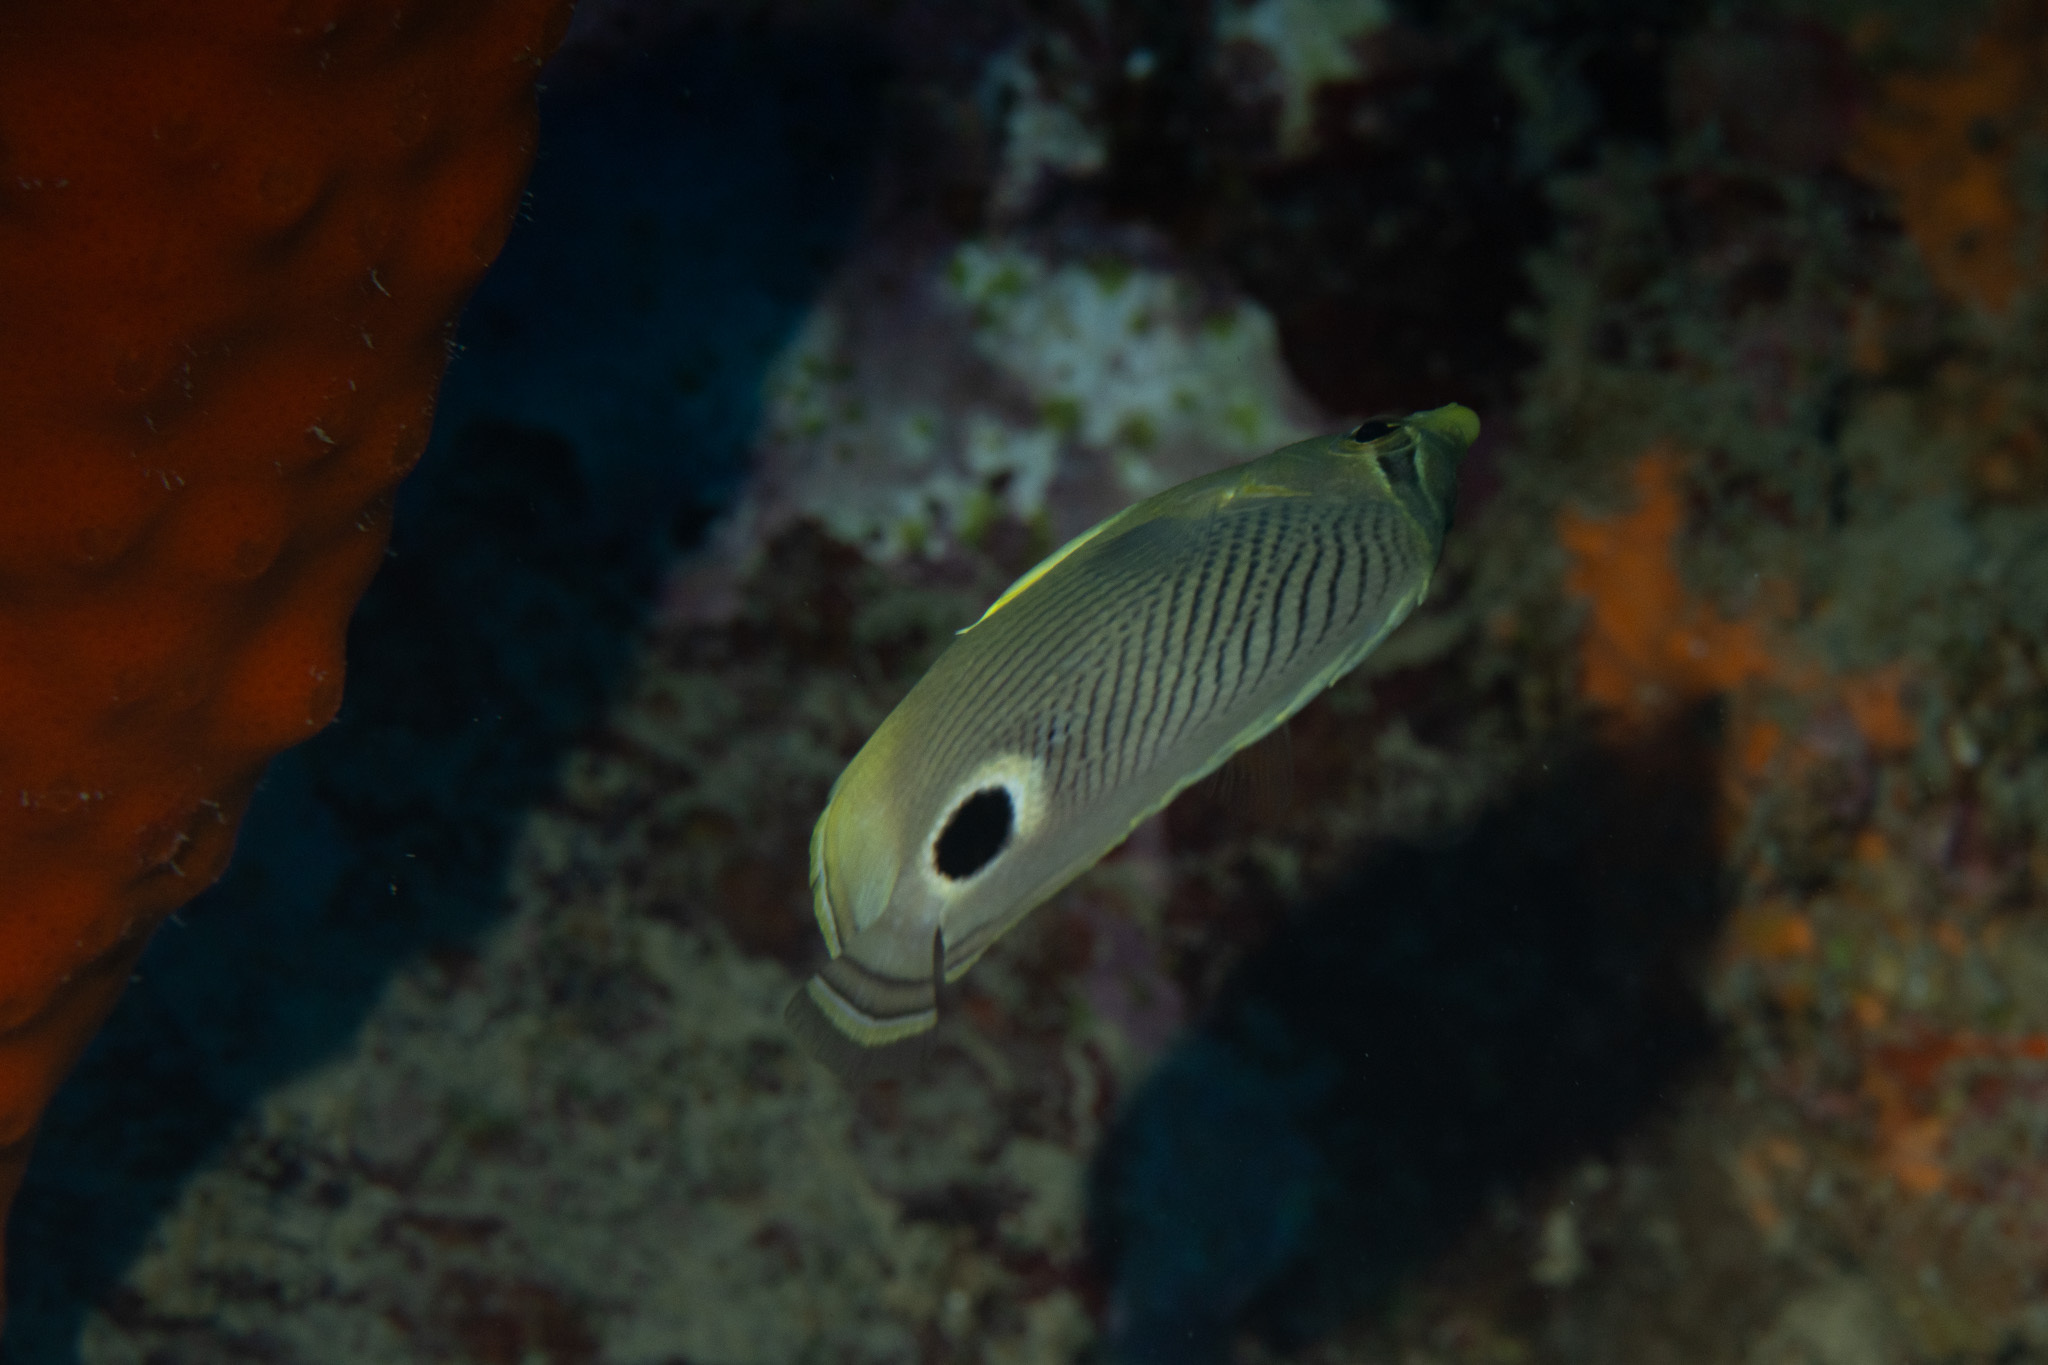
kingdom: Animalia
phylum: Chordata
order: Perciformes
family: Chaetodontidae
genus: Chaetodon
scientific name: Chaetodon capistratus
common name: Kete
